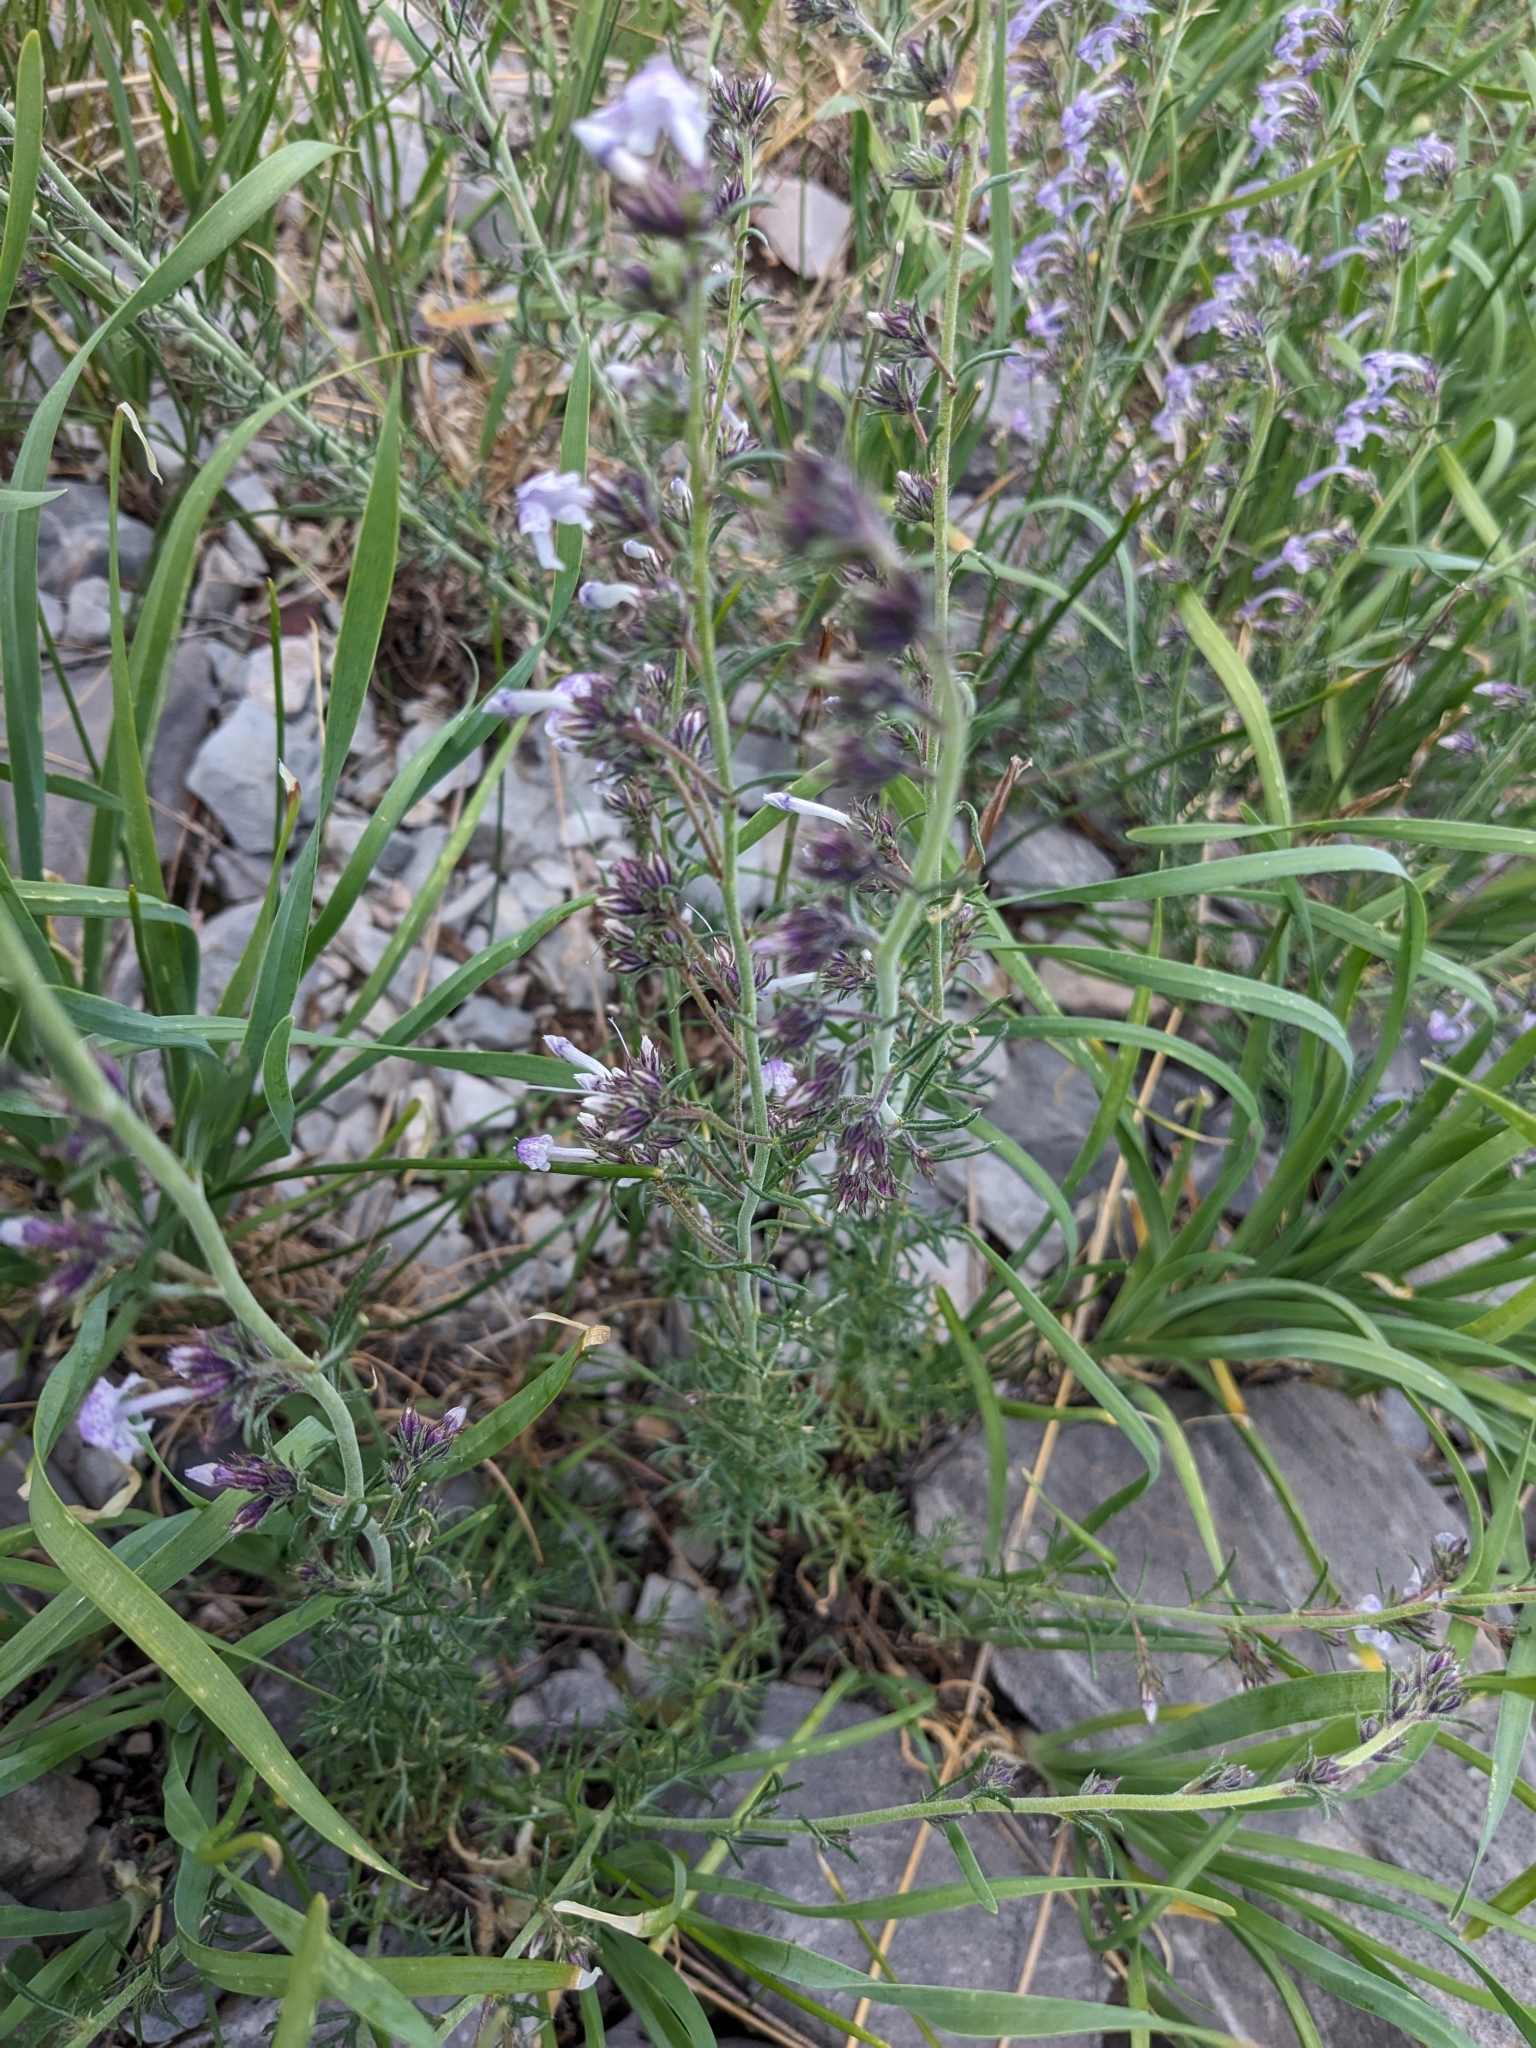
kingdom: Plantae
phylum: Tracheophyta
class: Magnoliopsida
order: Ericales
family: Polemoniaceae
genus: Ipomopsis
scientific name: Ipomopsis macombii
